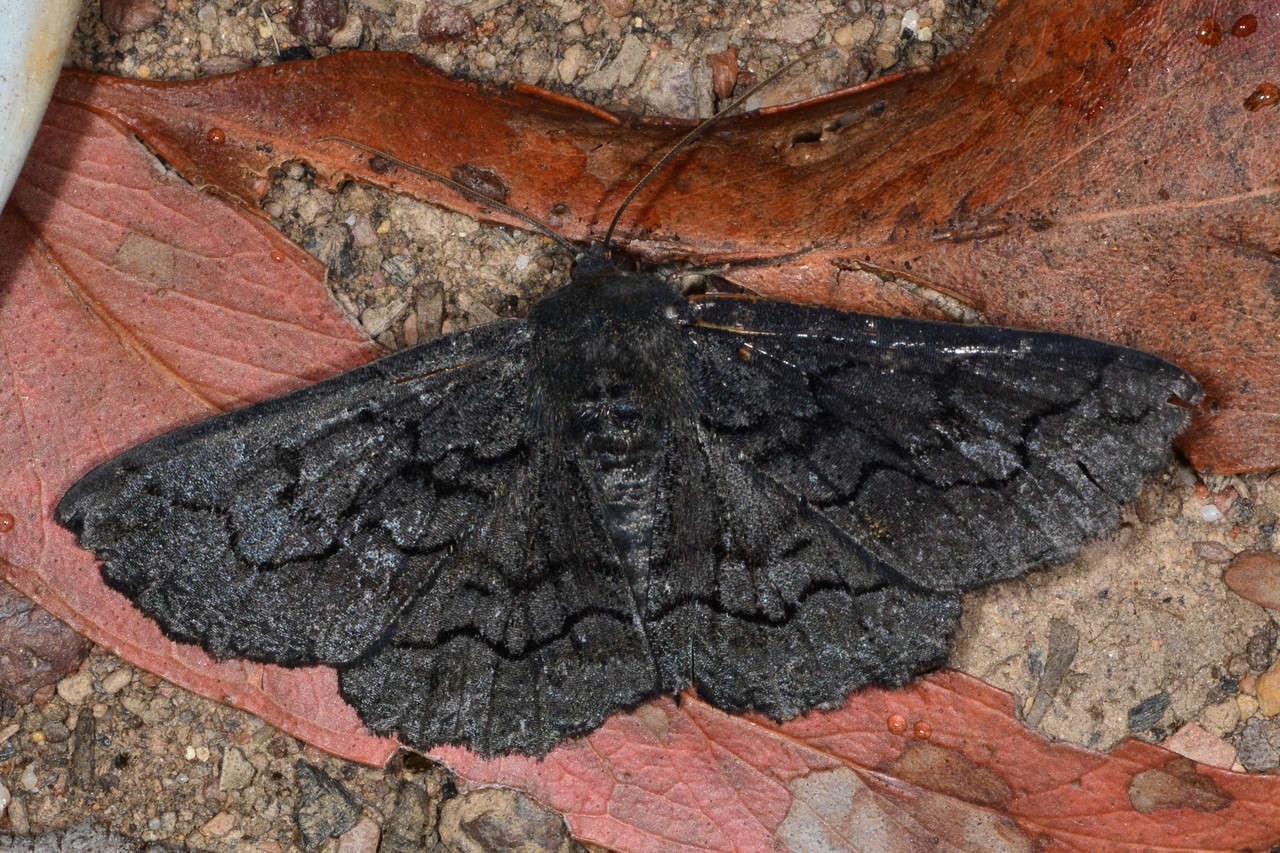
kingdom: Animalia
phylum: Arthropoda
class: Insecta
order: Lepidoptera
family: Geometridae
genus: Melanodes
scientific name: Melanodes anthracitaria
